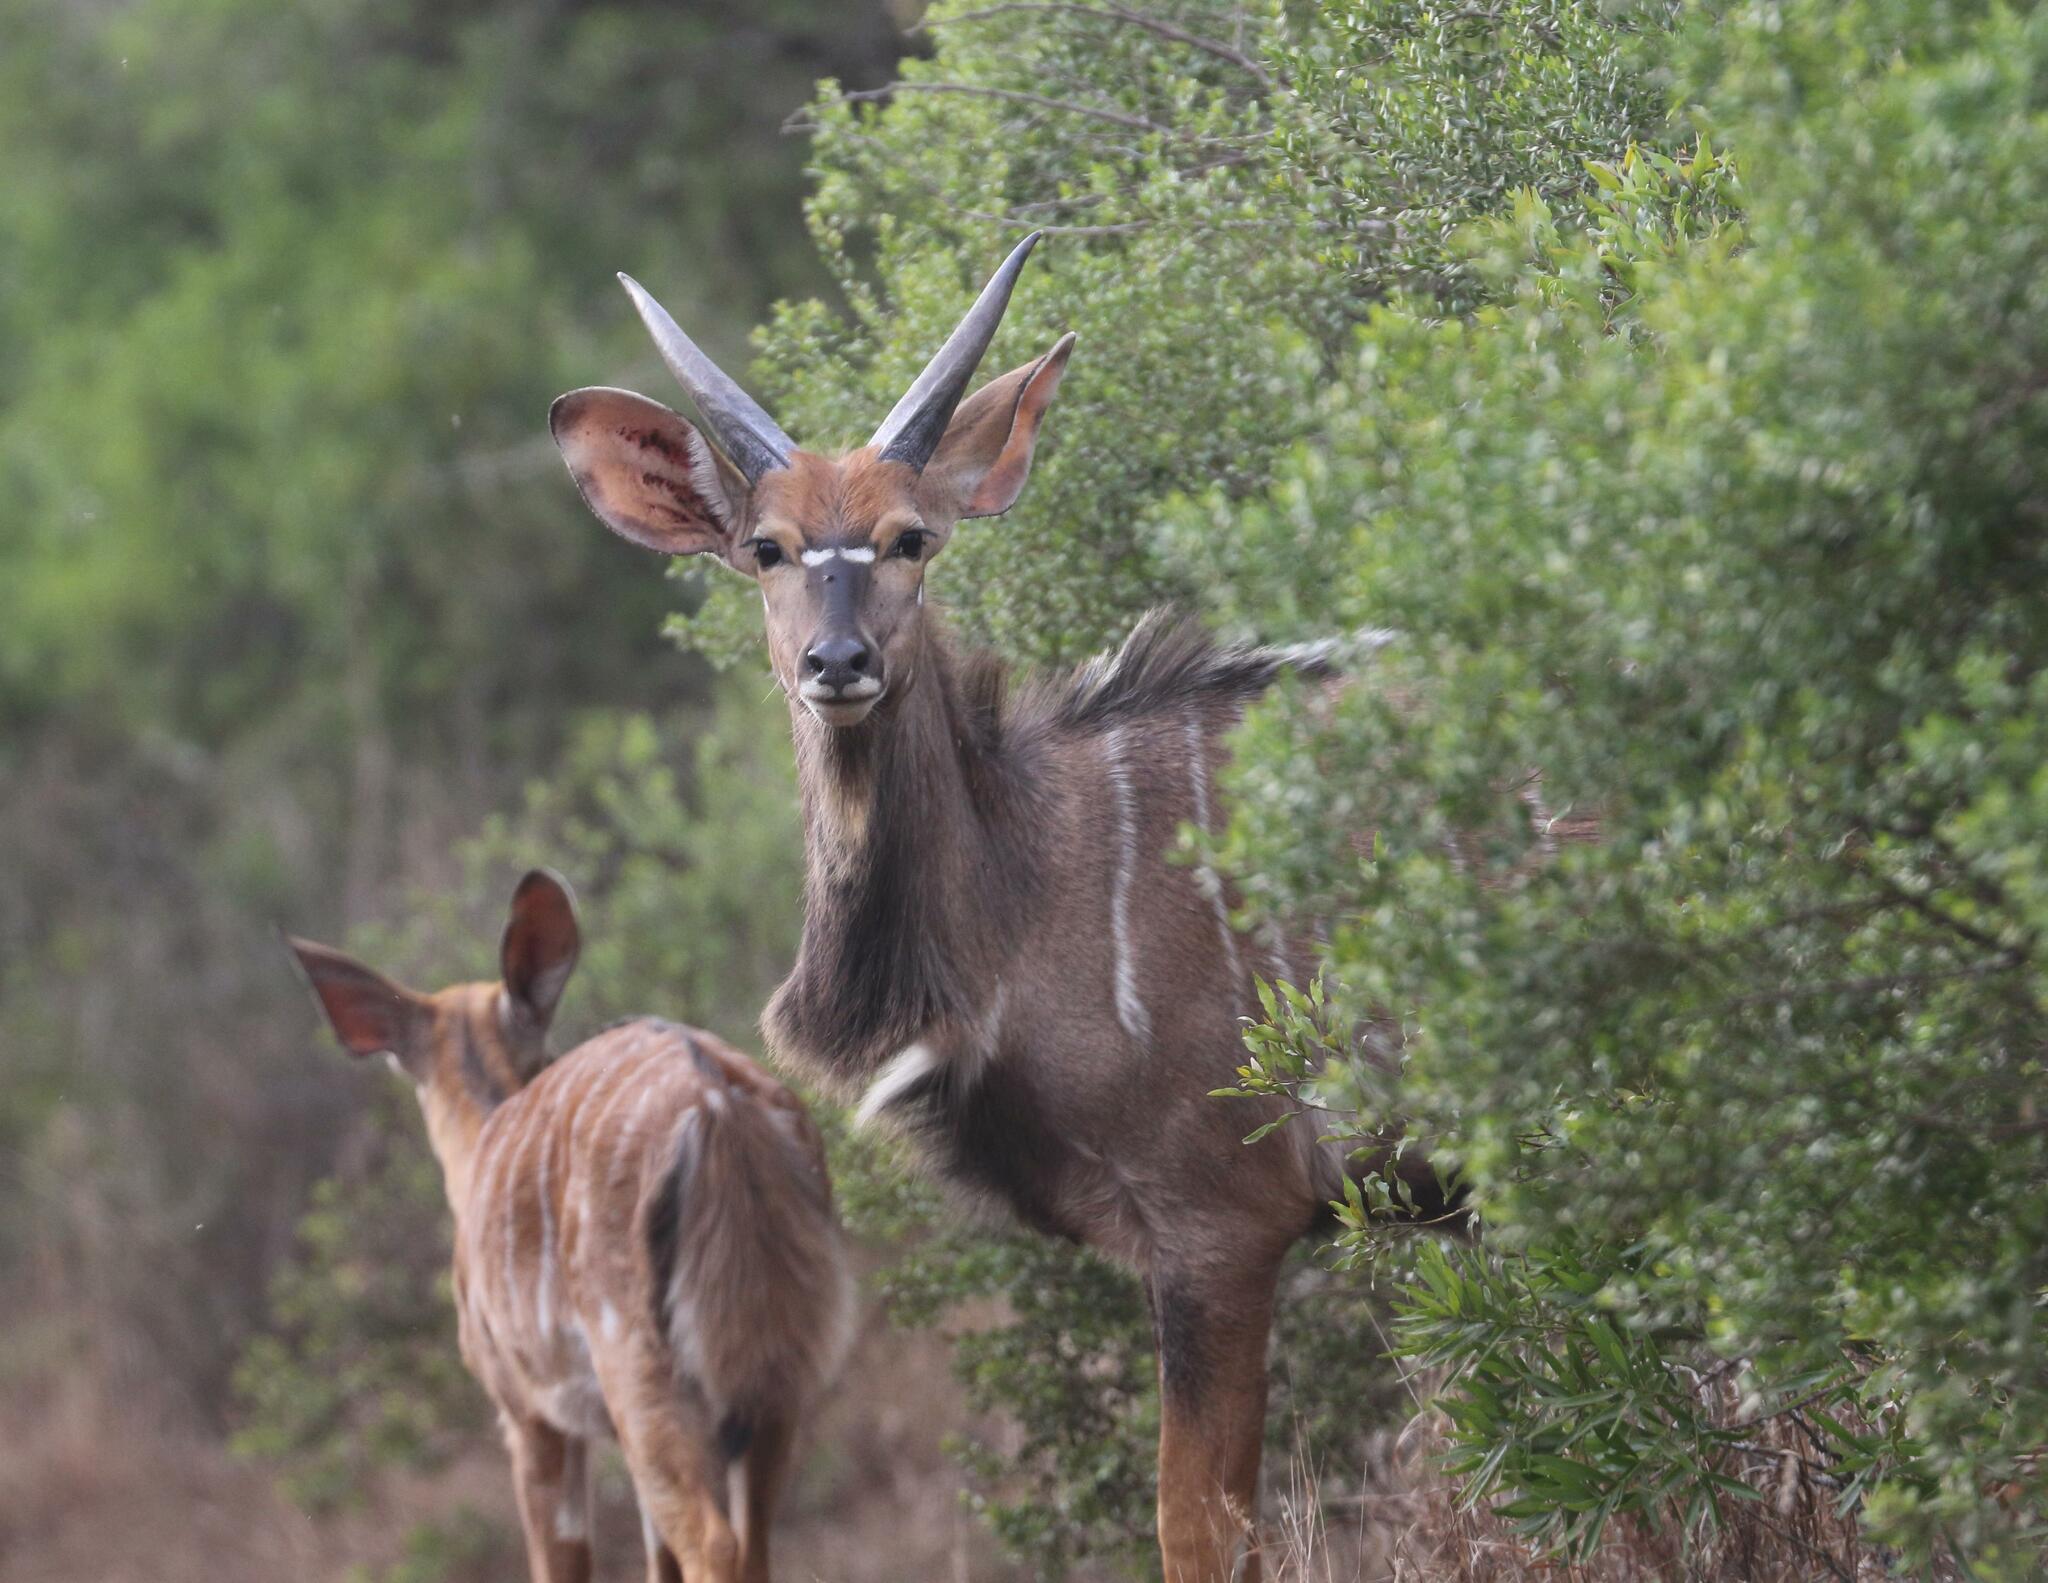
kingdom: Animalia
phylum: Chordata
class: Mammalia
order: Artiodactyla
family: Bovidae
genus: Tragelaphus
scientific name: Tragelaphus angasii
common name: Nyala
